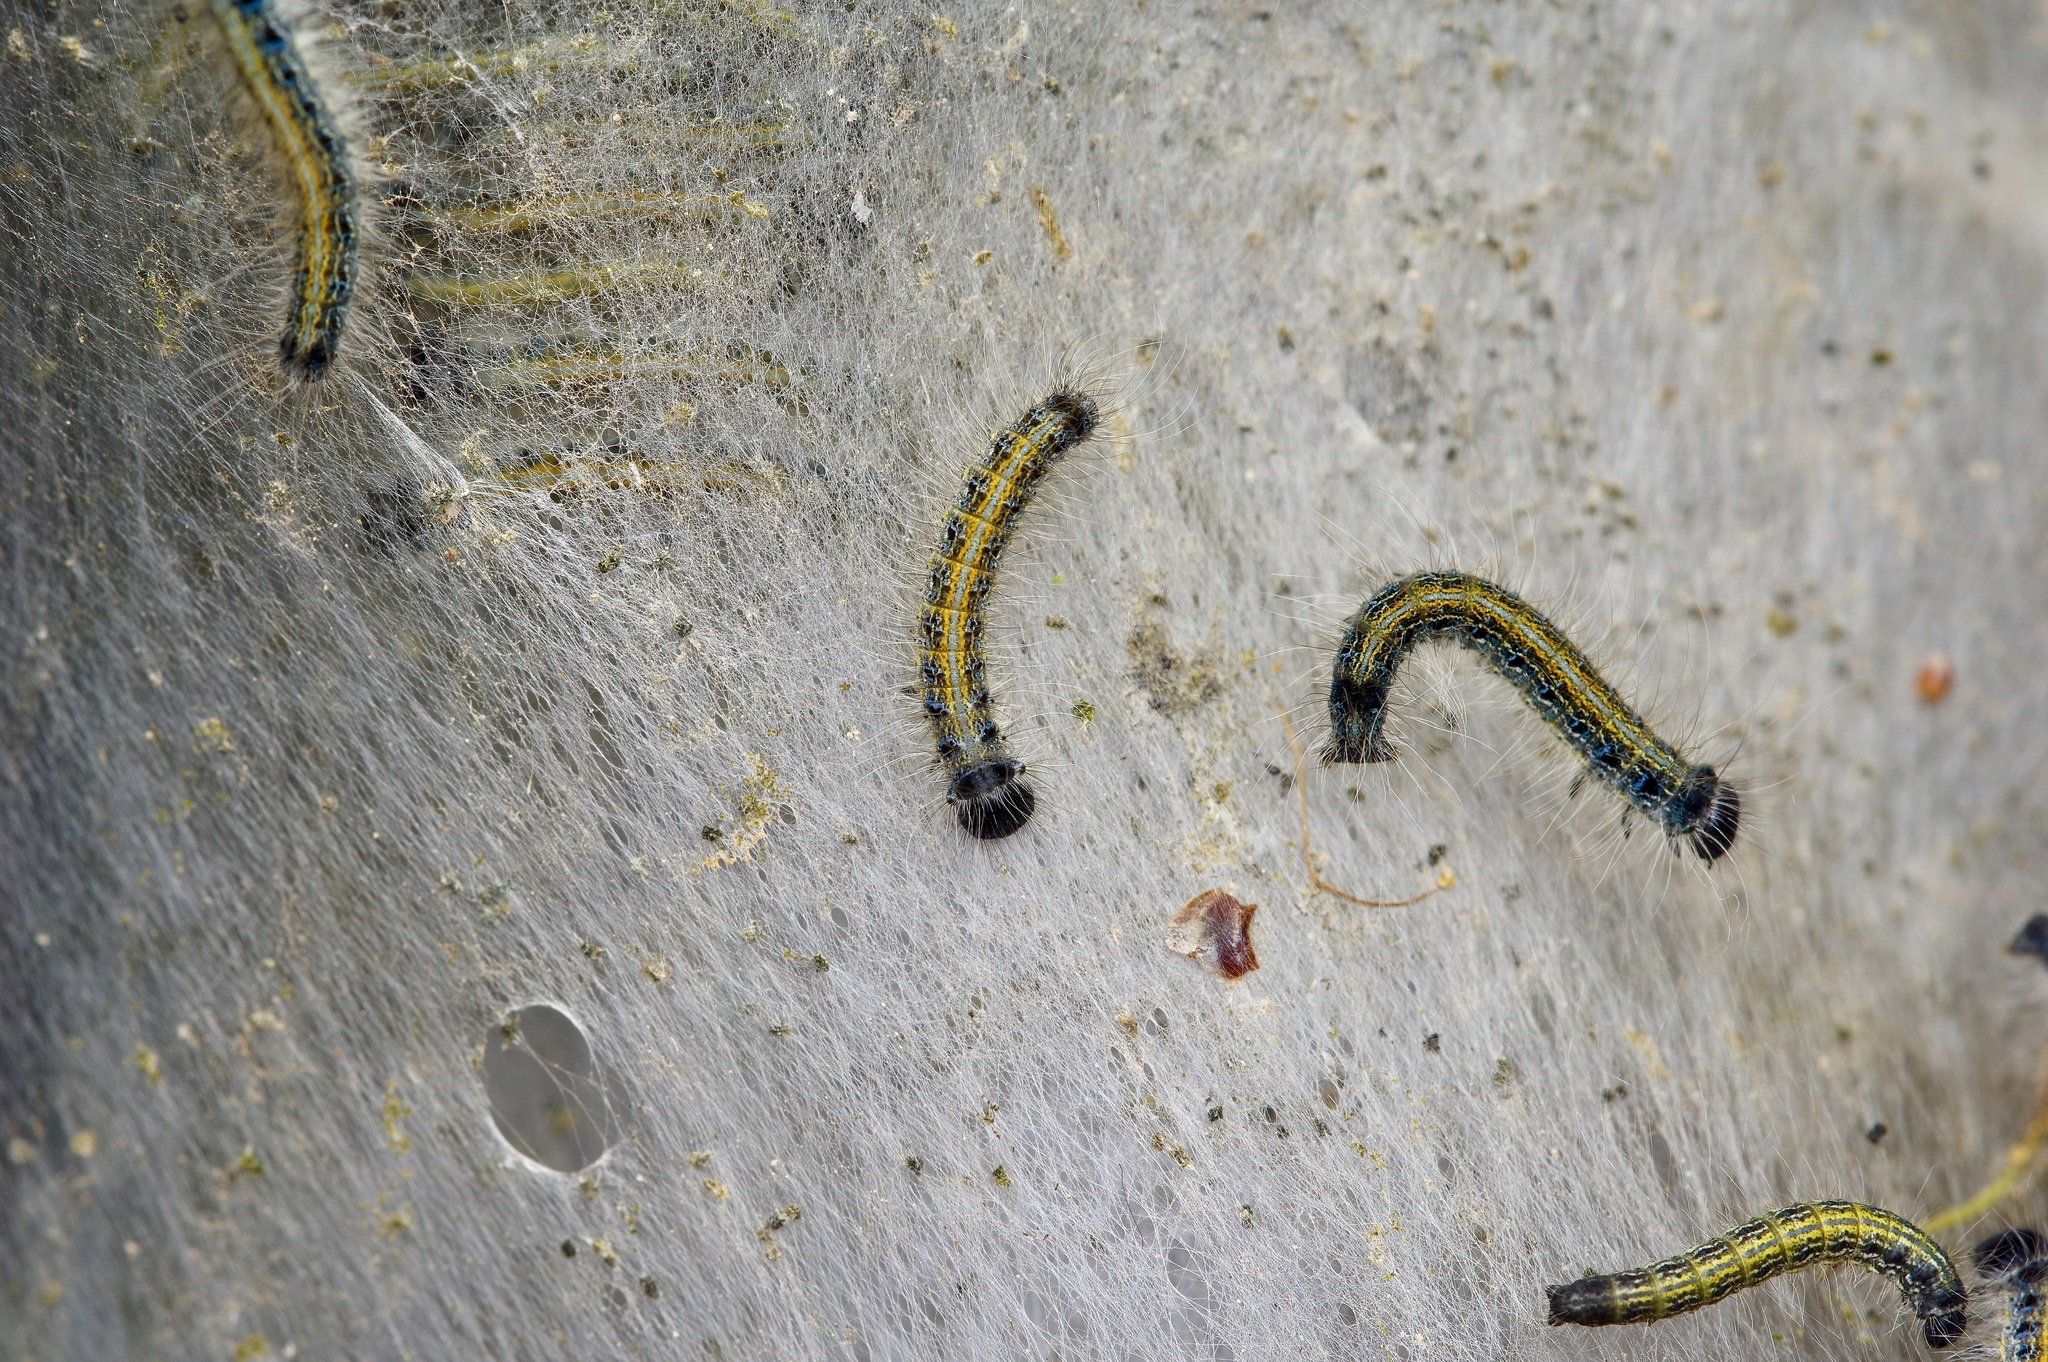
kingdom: Animalia
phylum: Arthropoda
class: Insecta
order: Lepidoptera
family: Lasiocampidae
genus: Malacosoma
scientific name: Malacosoma americana
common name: Eastern tent caterpillar moth
